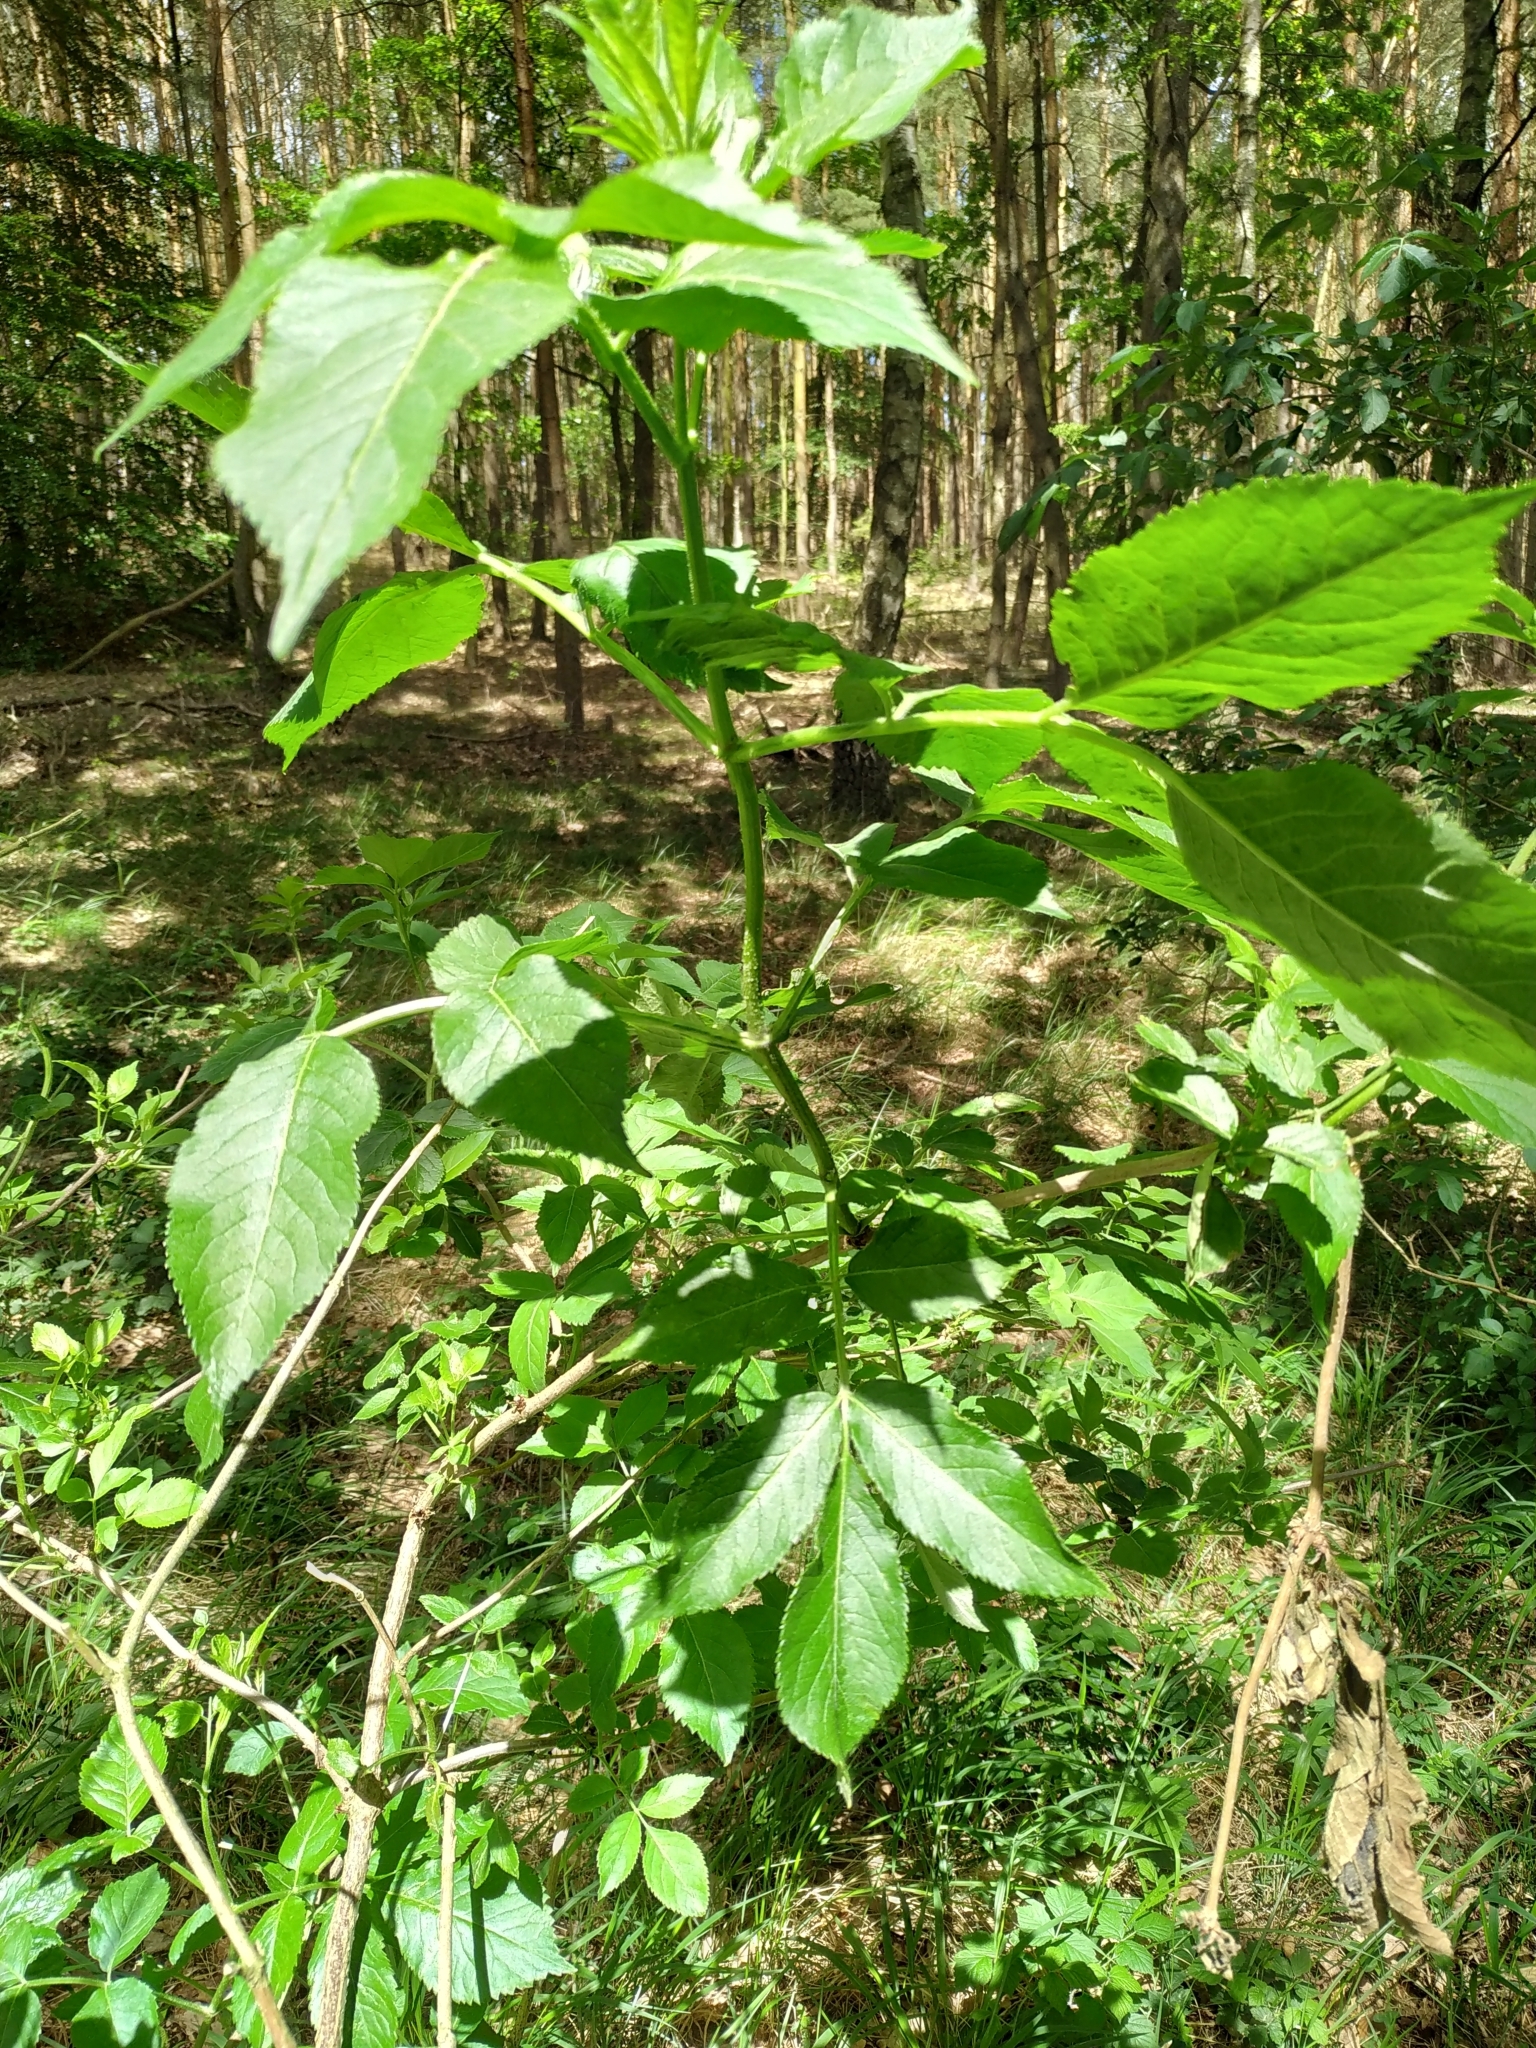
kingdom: Plantae
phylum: Tracheophyta
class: Magnoliopsida
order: Dipsacales
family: Viburnaceae
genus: Sambucus
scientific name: Sambucus nigra
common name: Elder
